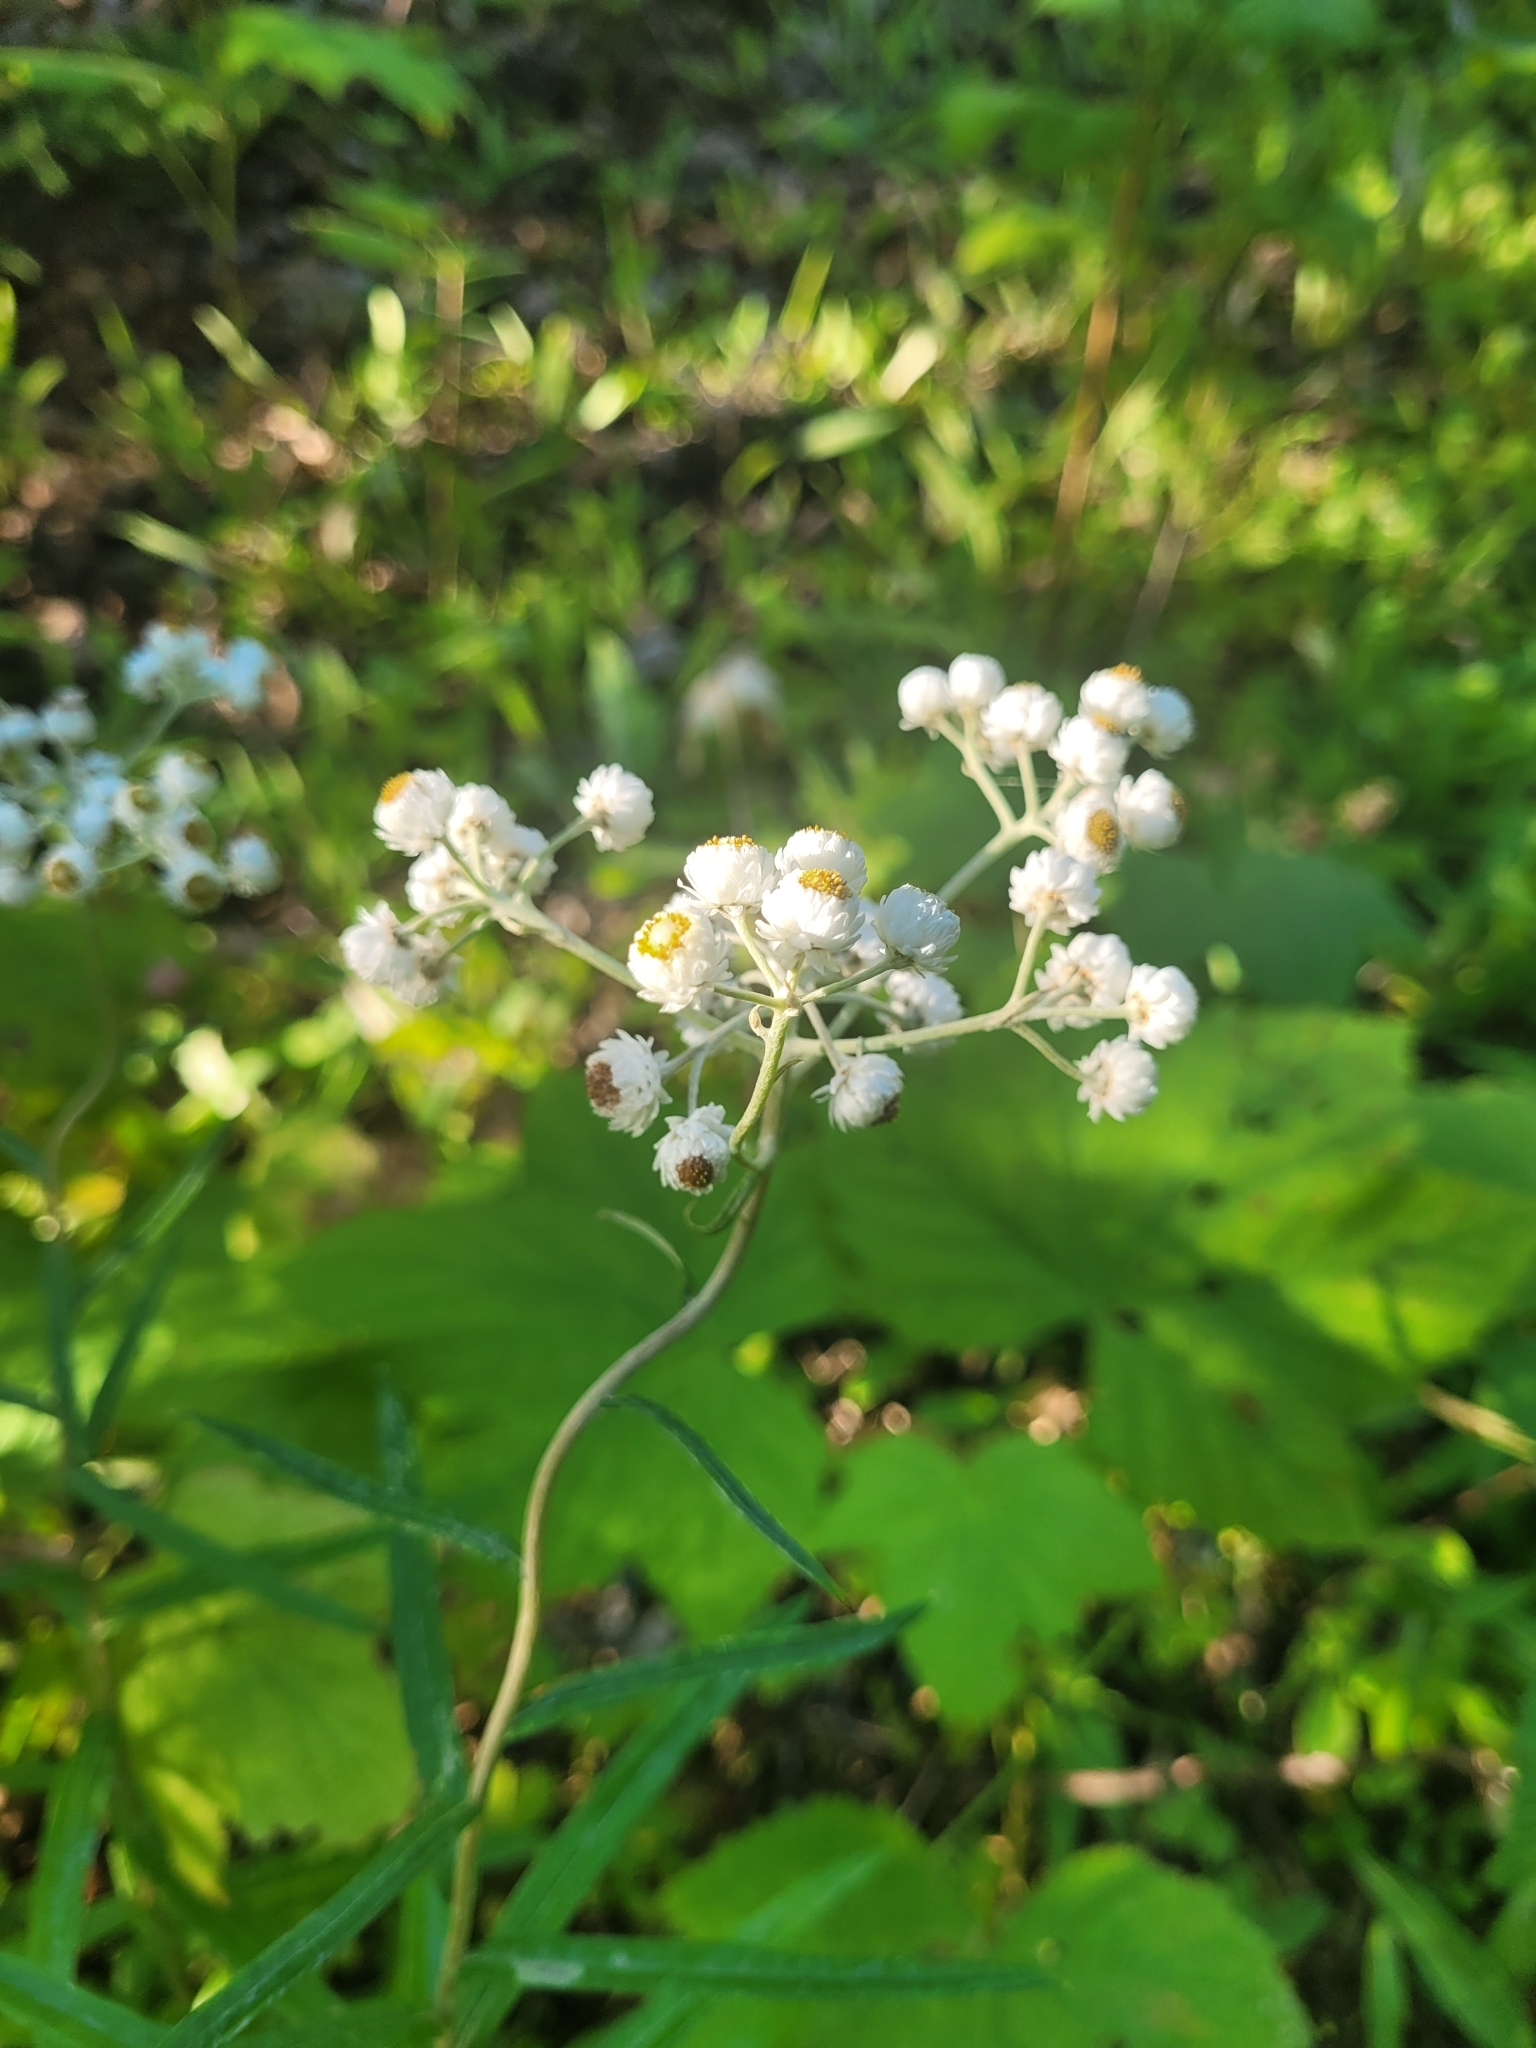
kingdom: Plantae
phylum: Tracheophyta
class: Magnoliopsida
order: Asterales
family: Asteraceae
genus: Anaphalis
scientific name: Anaphalis margaritacea
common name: Pearly everlasting
